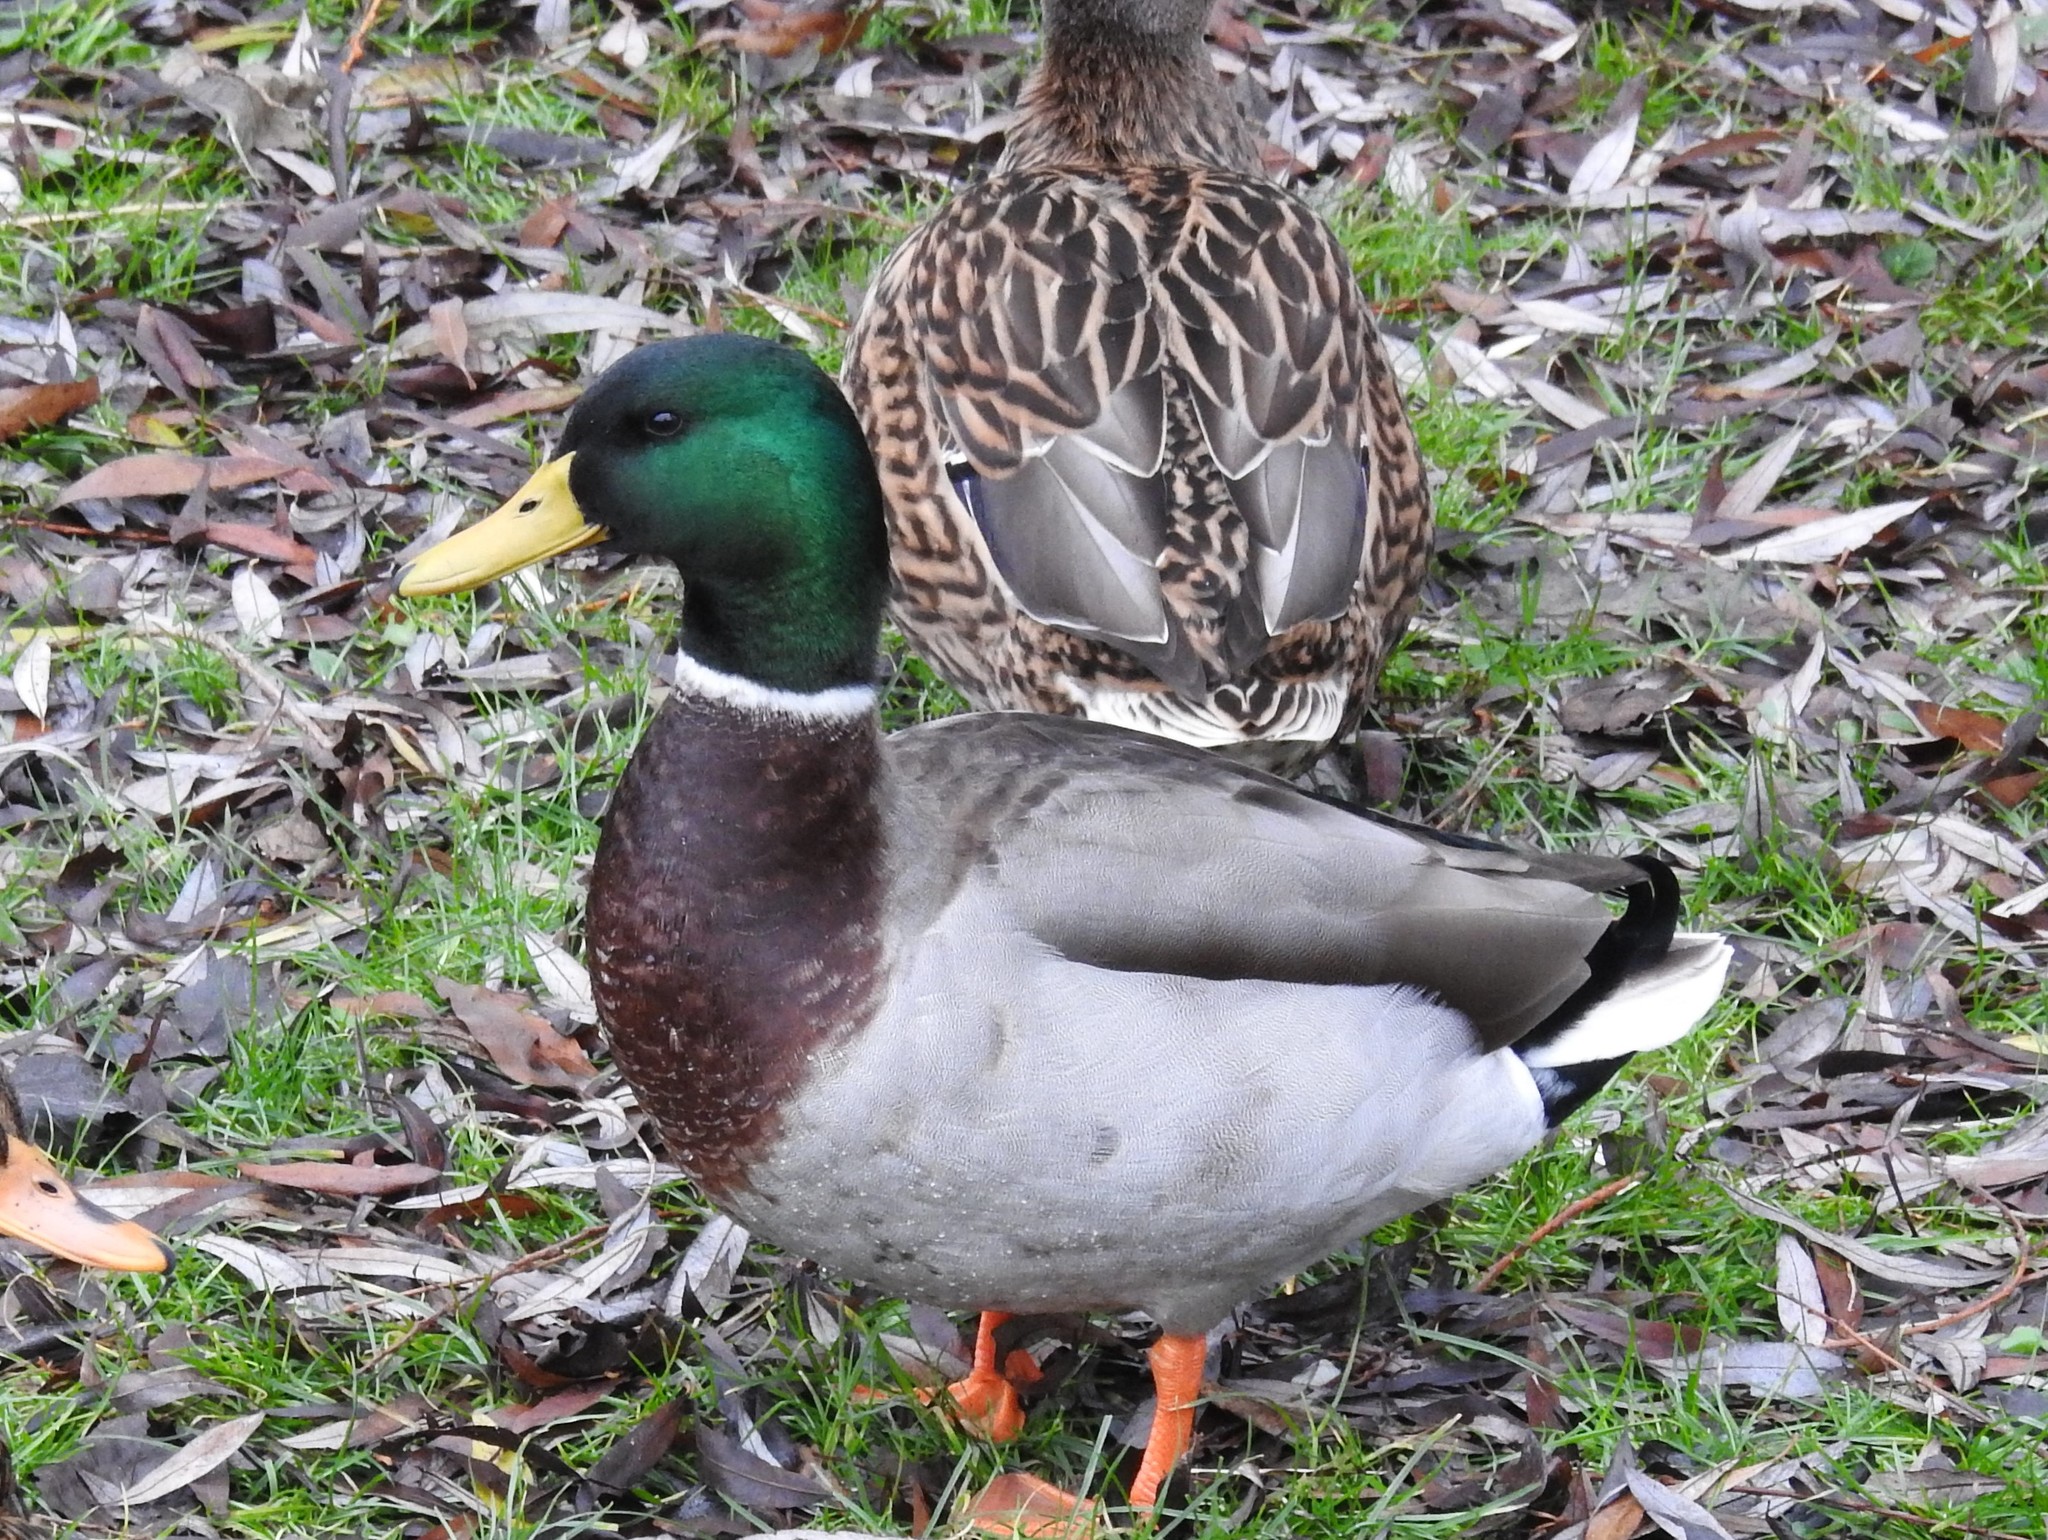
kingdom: Animalia
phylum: Chordata
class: Aves
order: Anseriformes
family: Anatidae
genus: Anas
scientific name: Anas platyrhynchos
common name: Mallard
